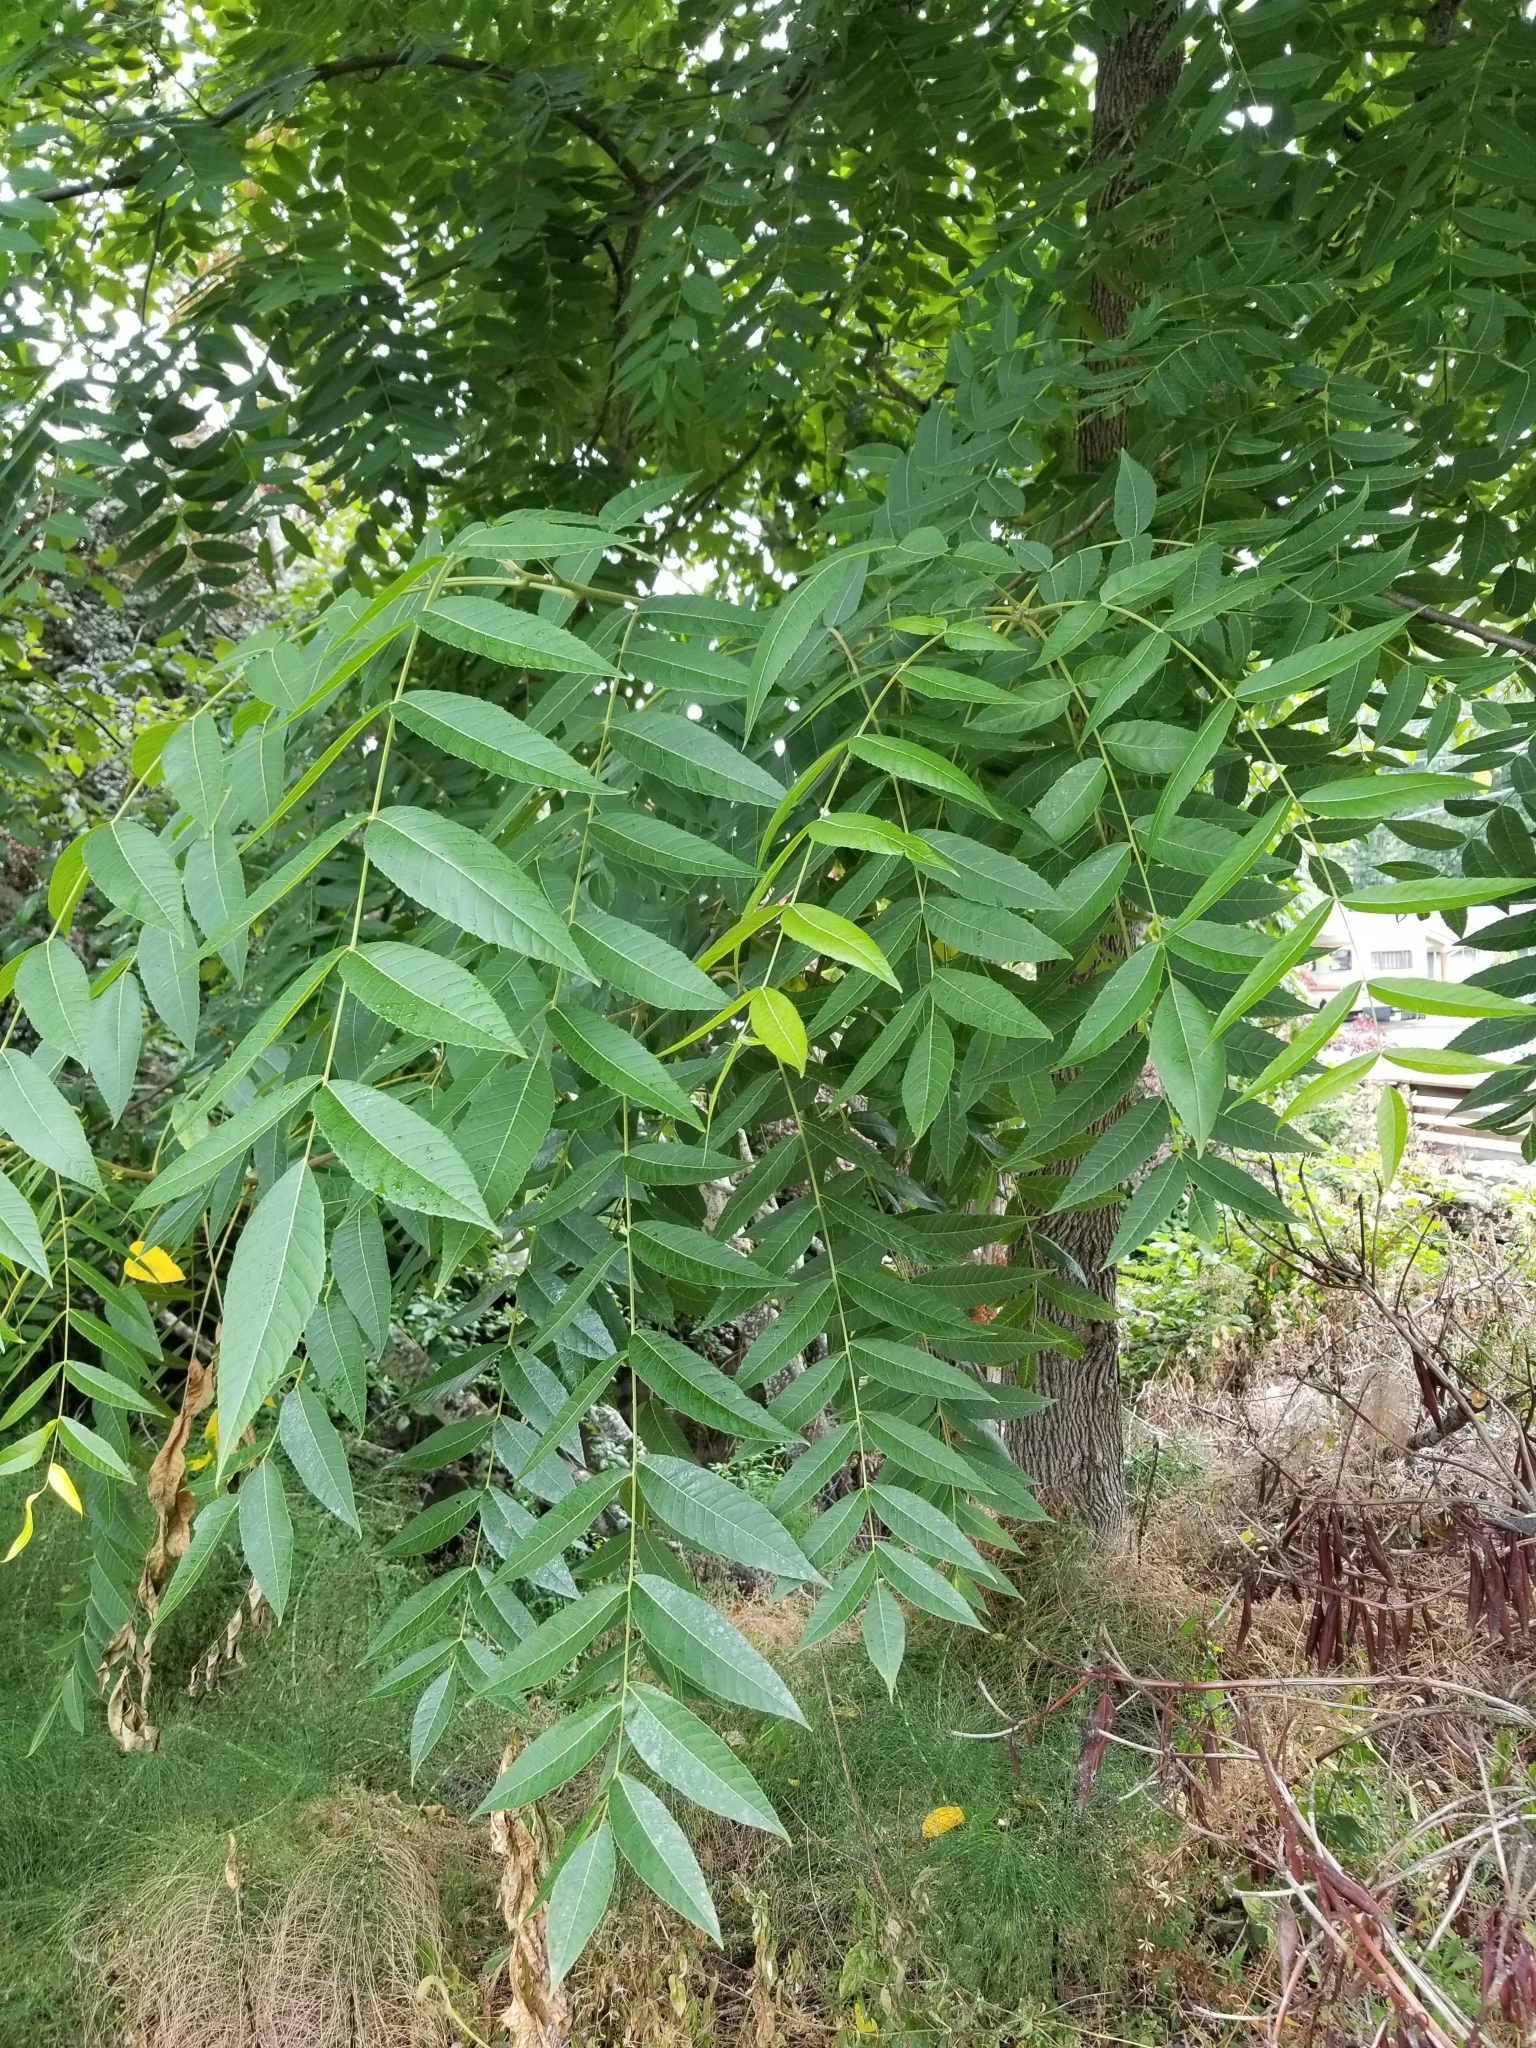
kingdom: Plantae
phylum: Tracheophyta
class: Magnoliopsida
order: Fagales
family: Juglandaceae
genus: Juglans
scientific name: Juglans nigra
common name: Black walnut
